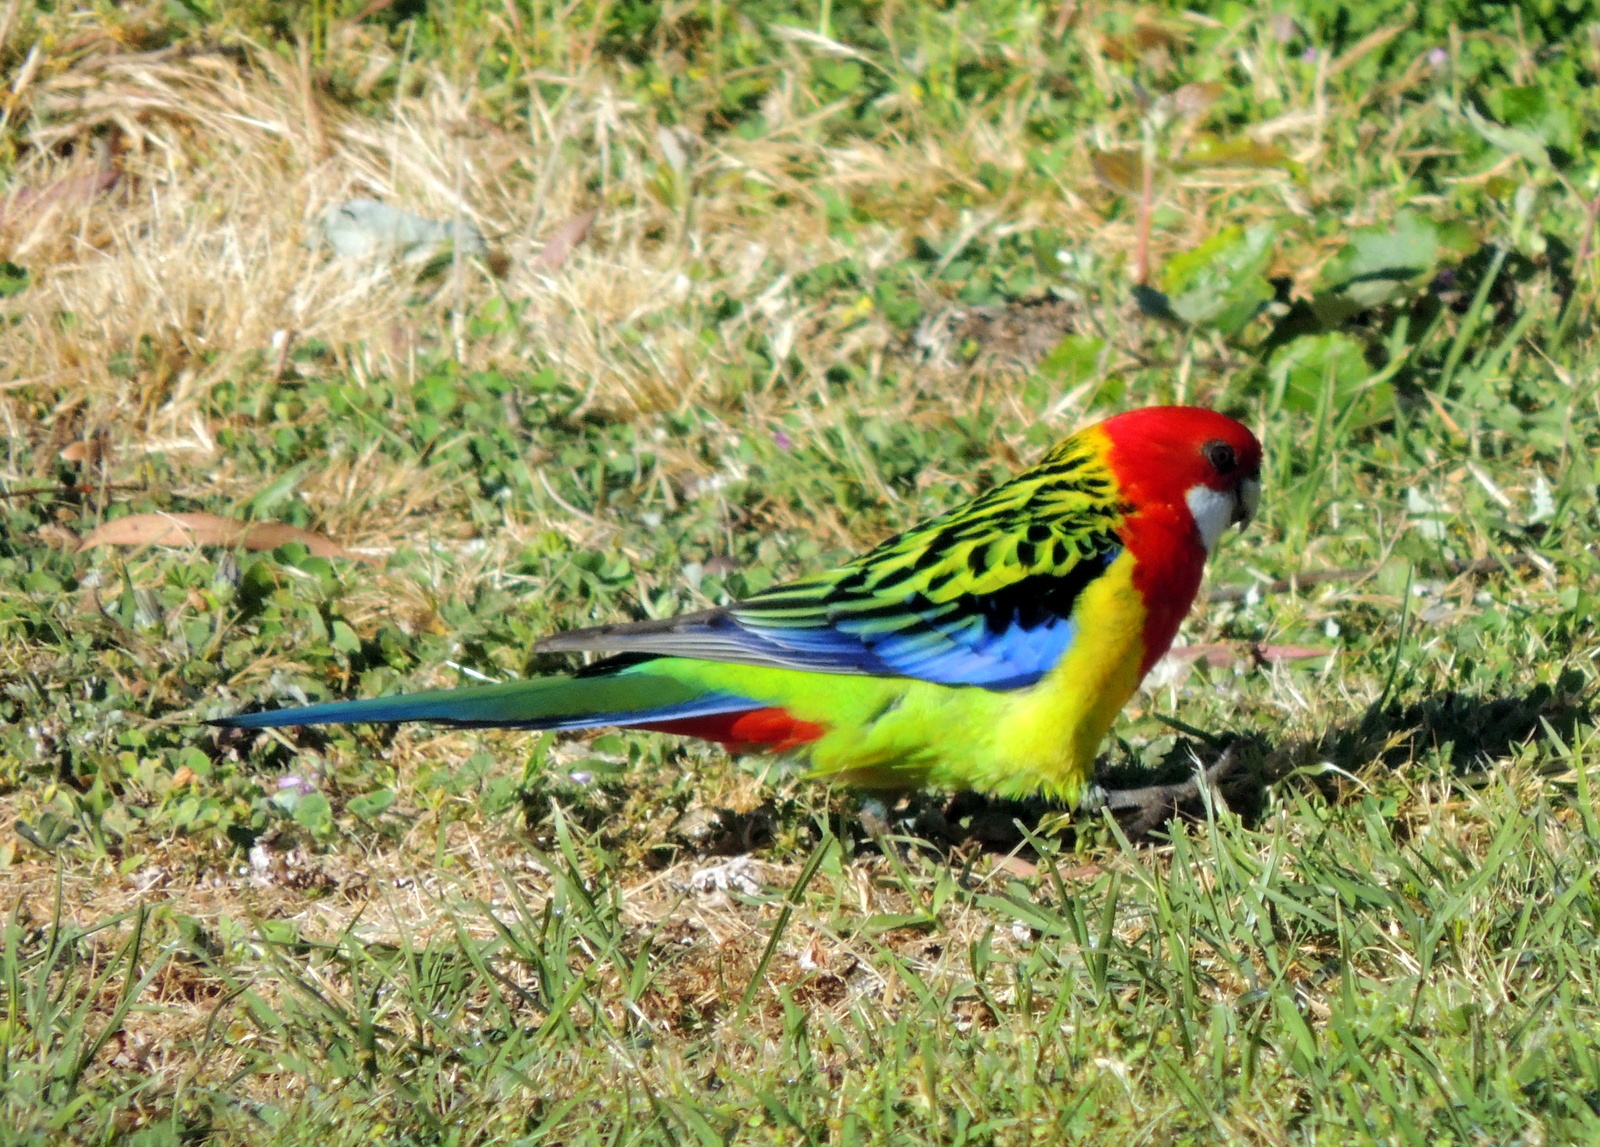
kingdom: Animalia
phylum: Chordata
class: Aves
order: Psittaciformes
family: Psittacidae
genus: Platycercus
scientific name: Platycercus eximius
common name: Eastern rosella
